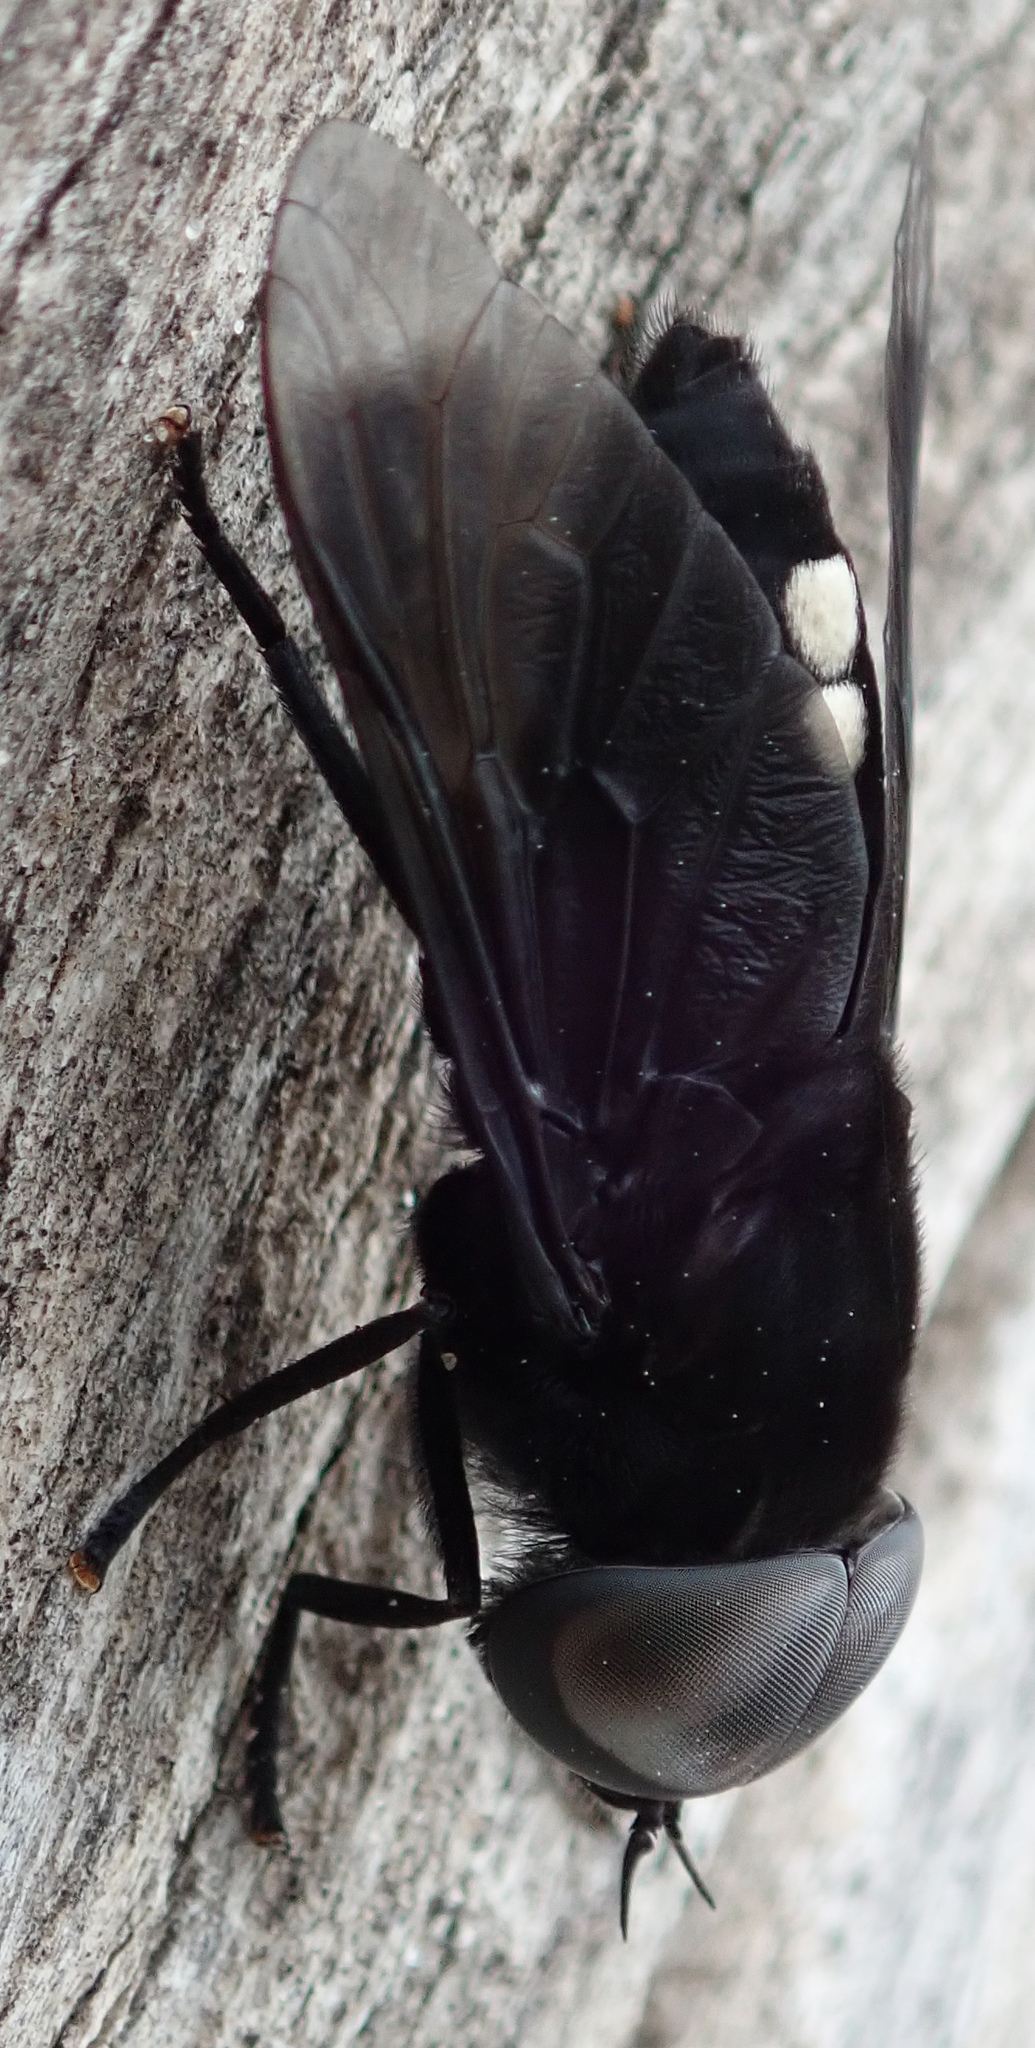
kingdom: Animalia
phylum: Arthropoda
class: Insecta
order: Diptera
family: Tabanidae
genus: Tabanus
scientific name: Tabanus biguttatus
